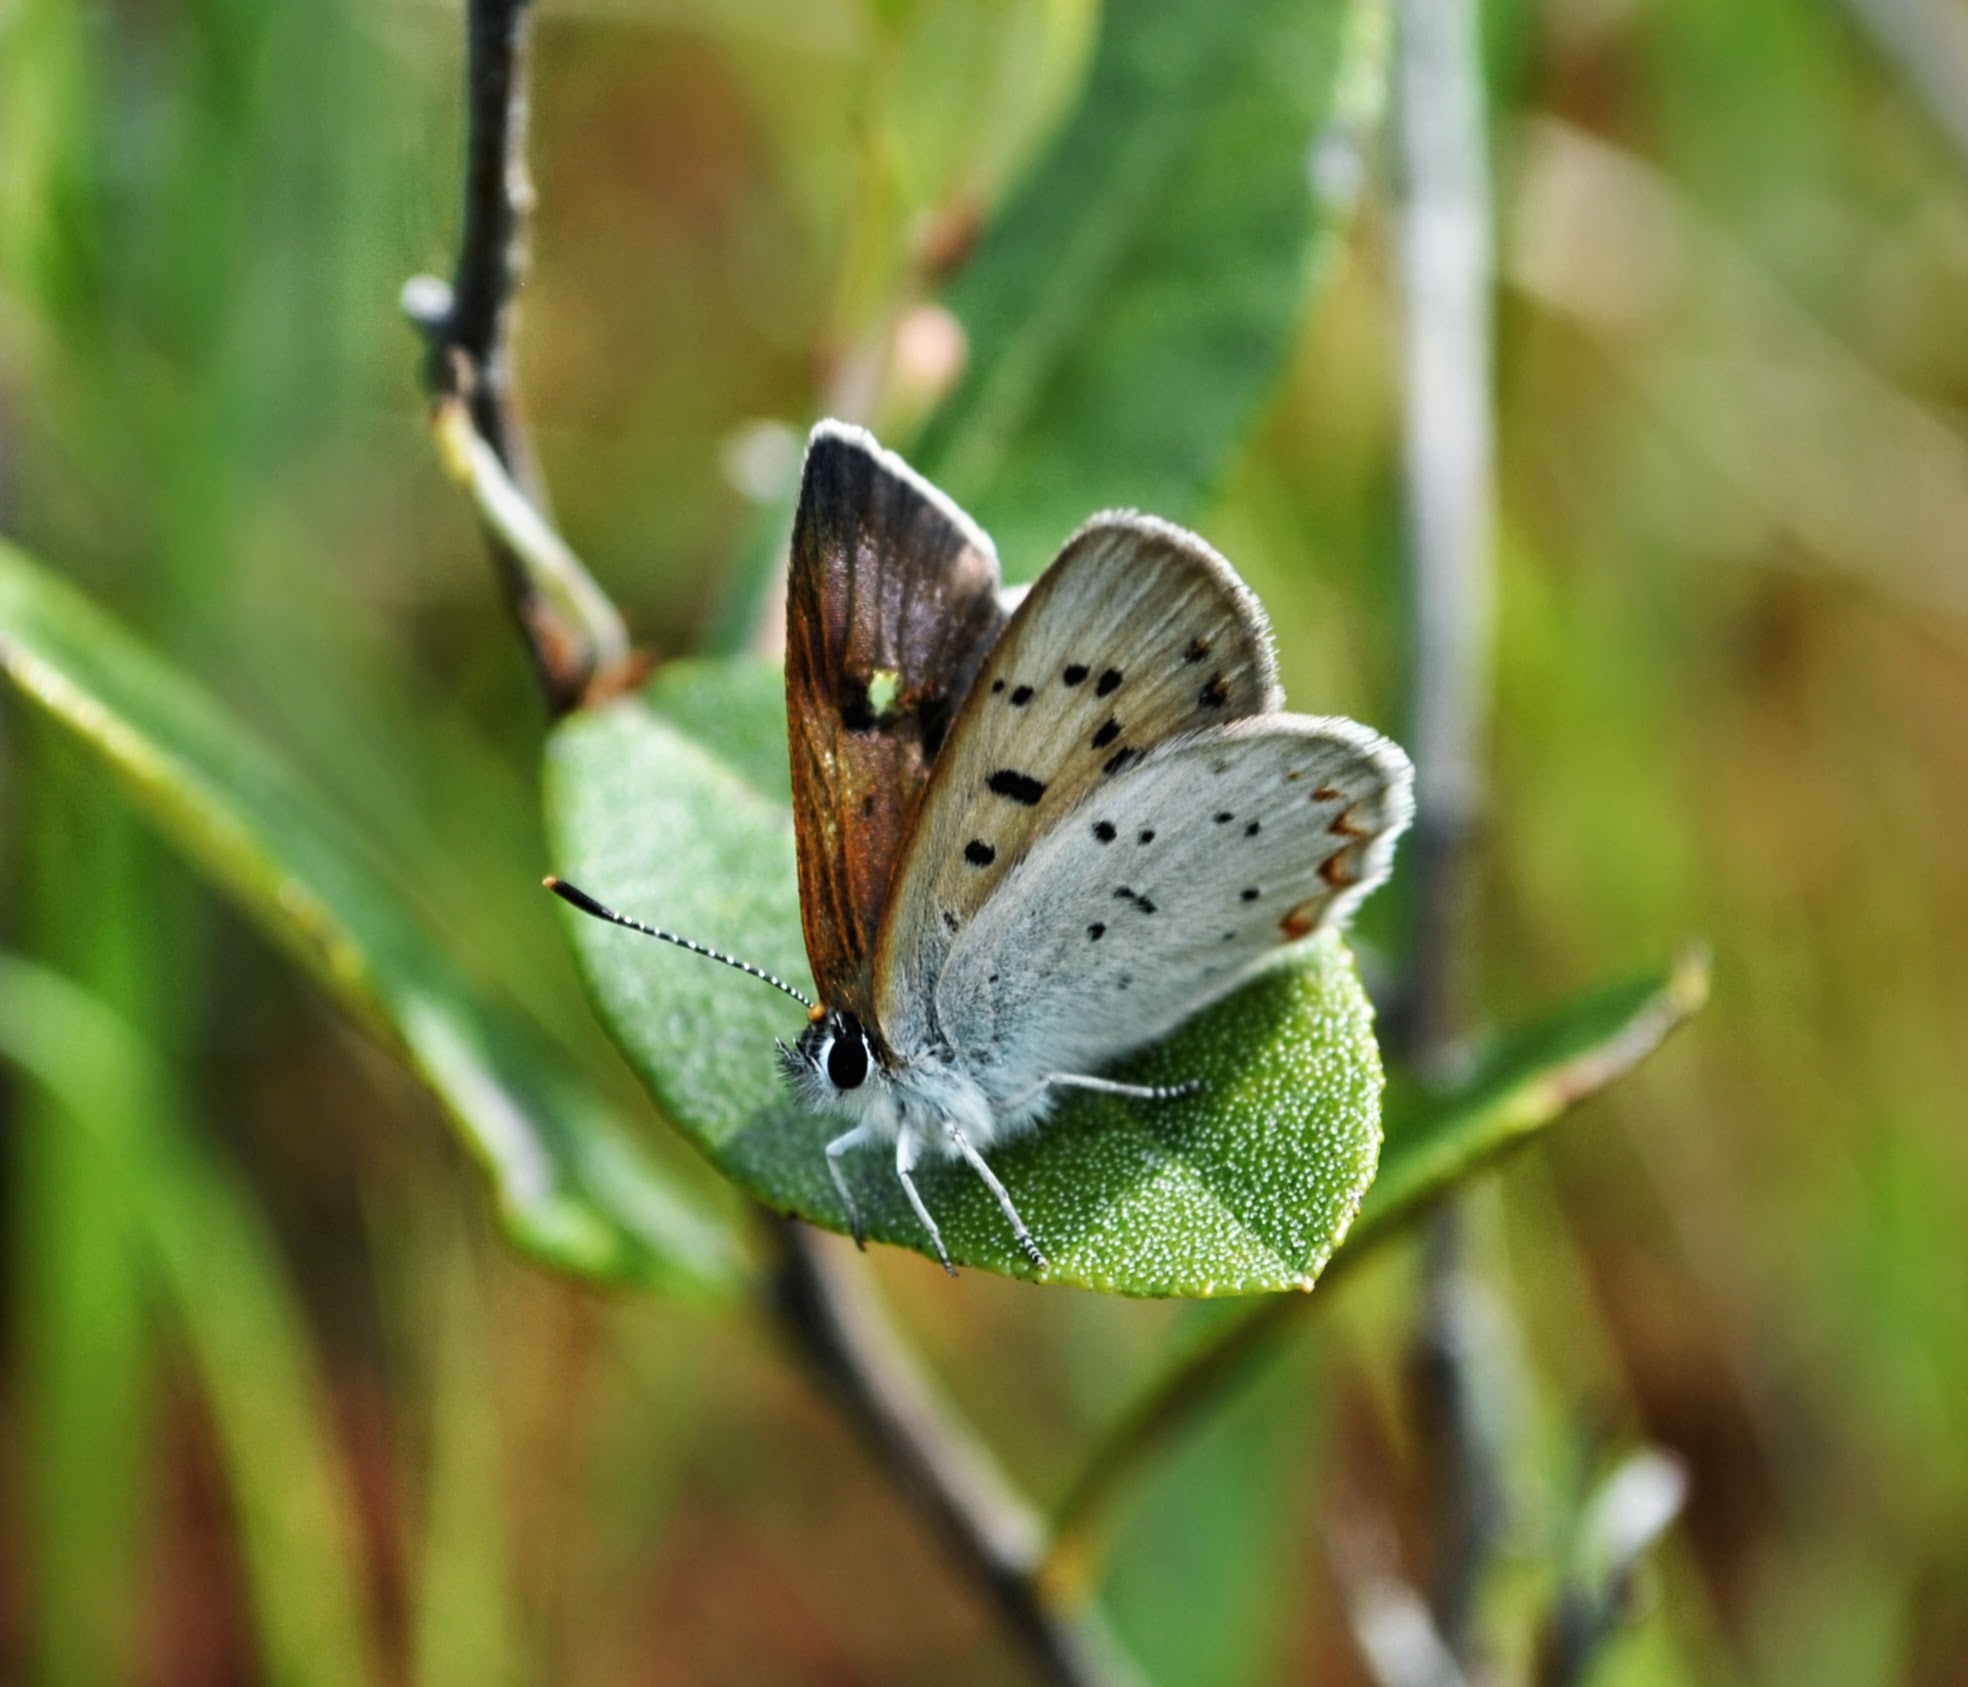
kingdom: Animalia
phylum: Arthropoda
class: Insecta
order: Lepidoptera
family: Lycaenidae
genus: Tharsalea
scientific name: Tharsalea epixanthe
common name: Bog copper
